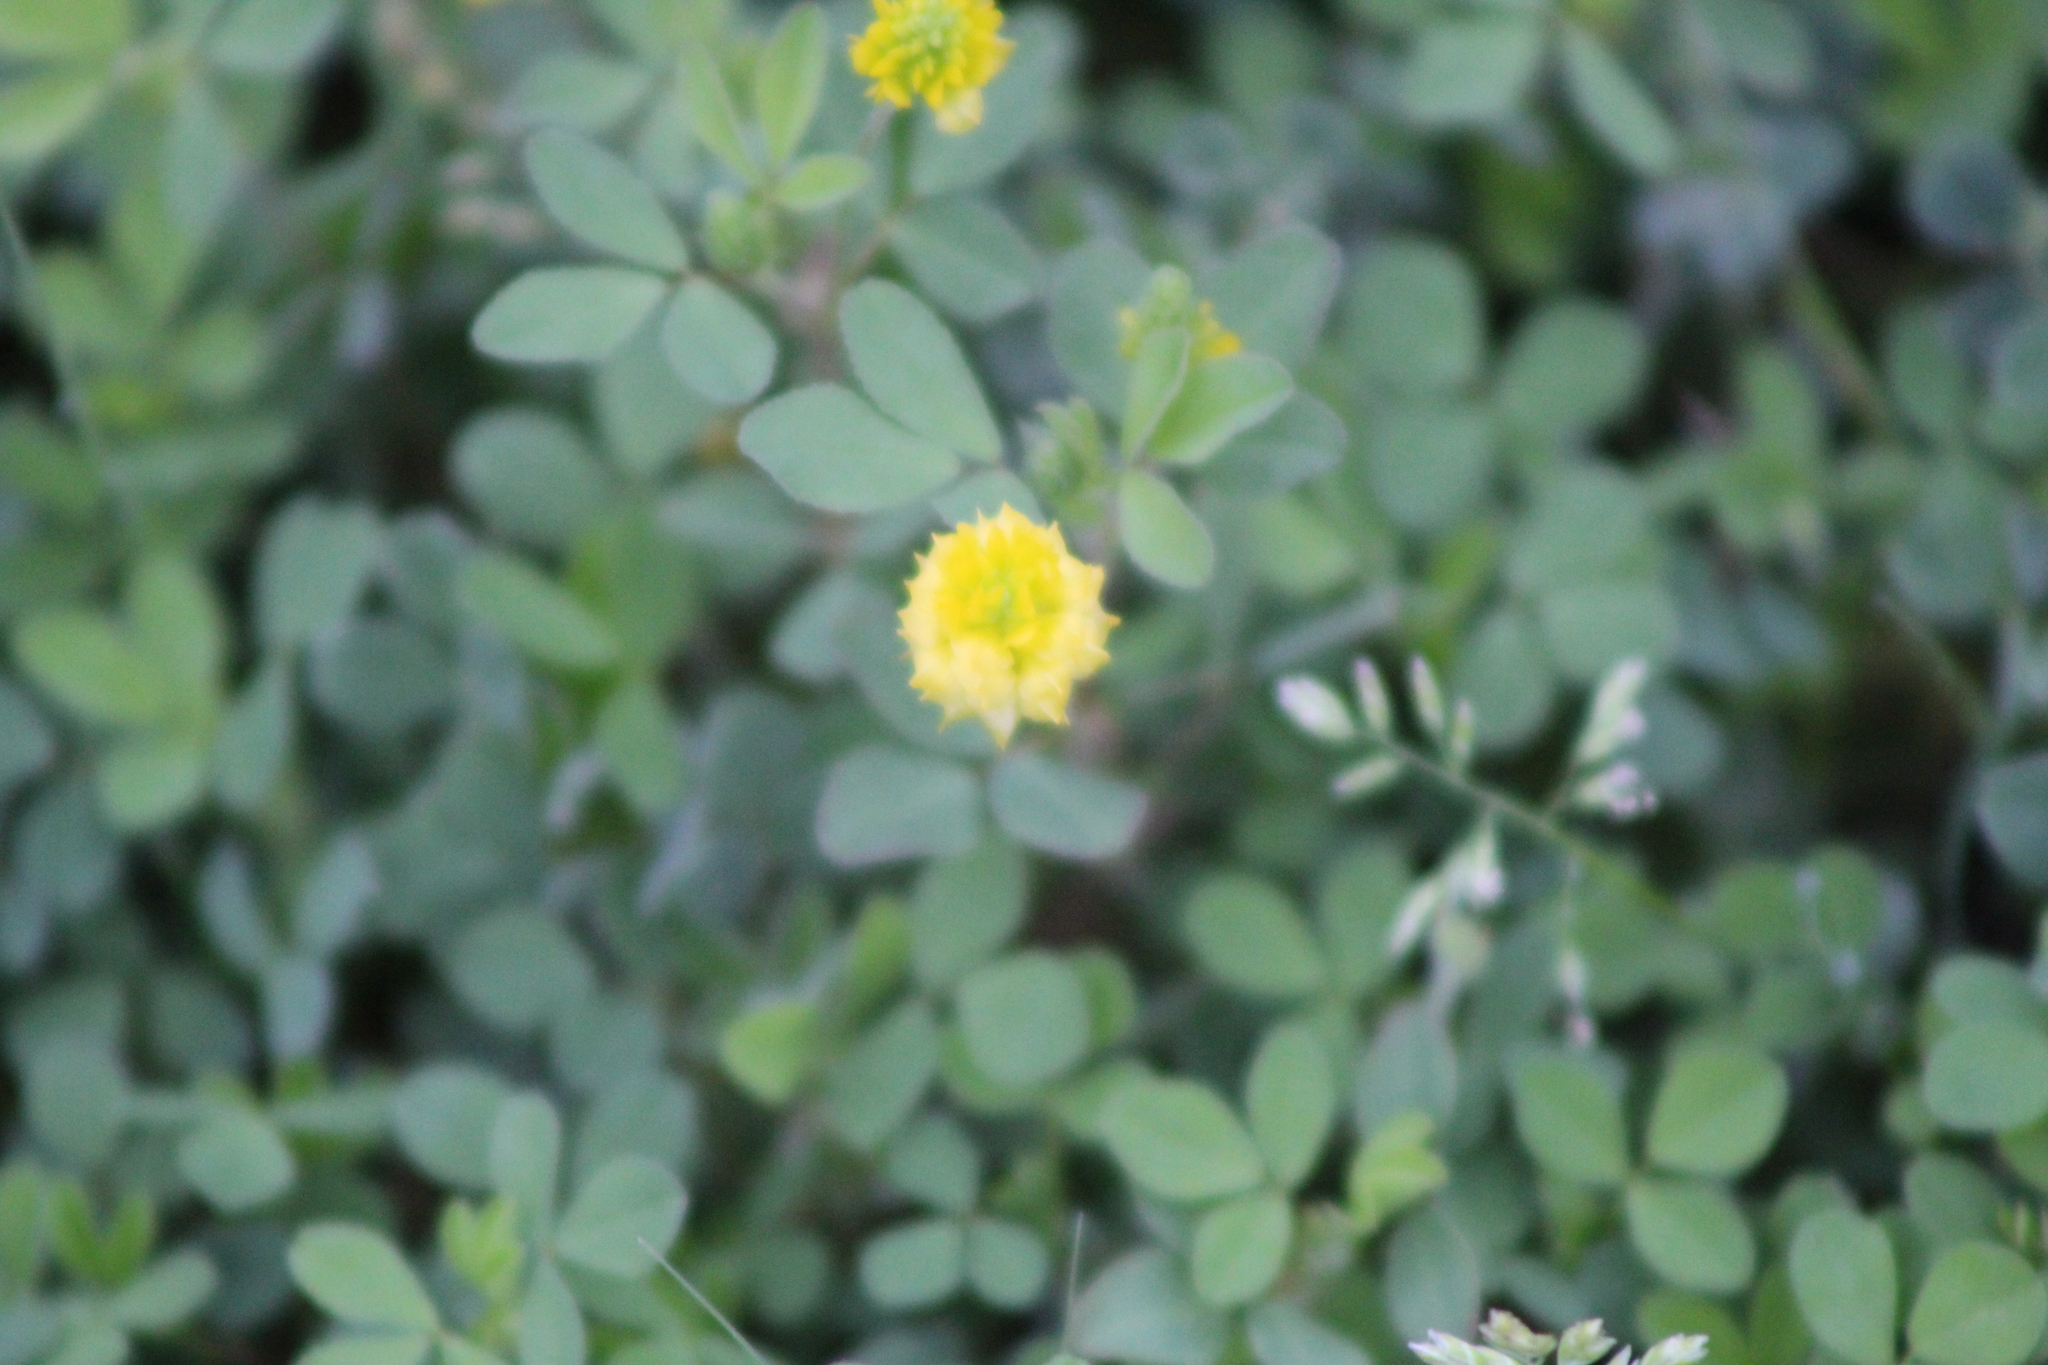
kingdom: Plantae
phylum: Tracheophyta
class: Magnoliopsida
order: Fabales
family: Fabaceae
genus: Trifolium
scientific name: Trifolium campestre
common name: Field clover
